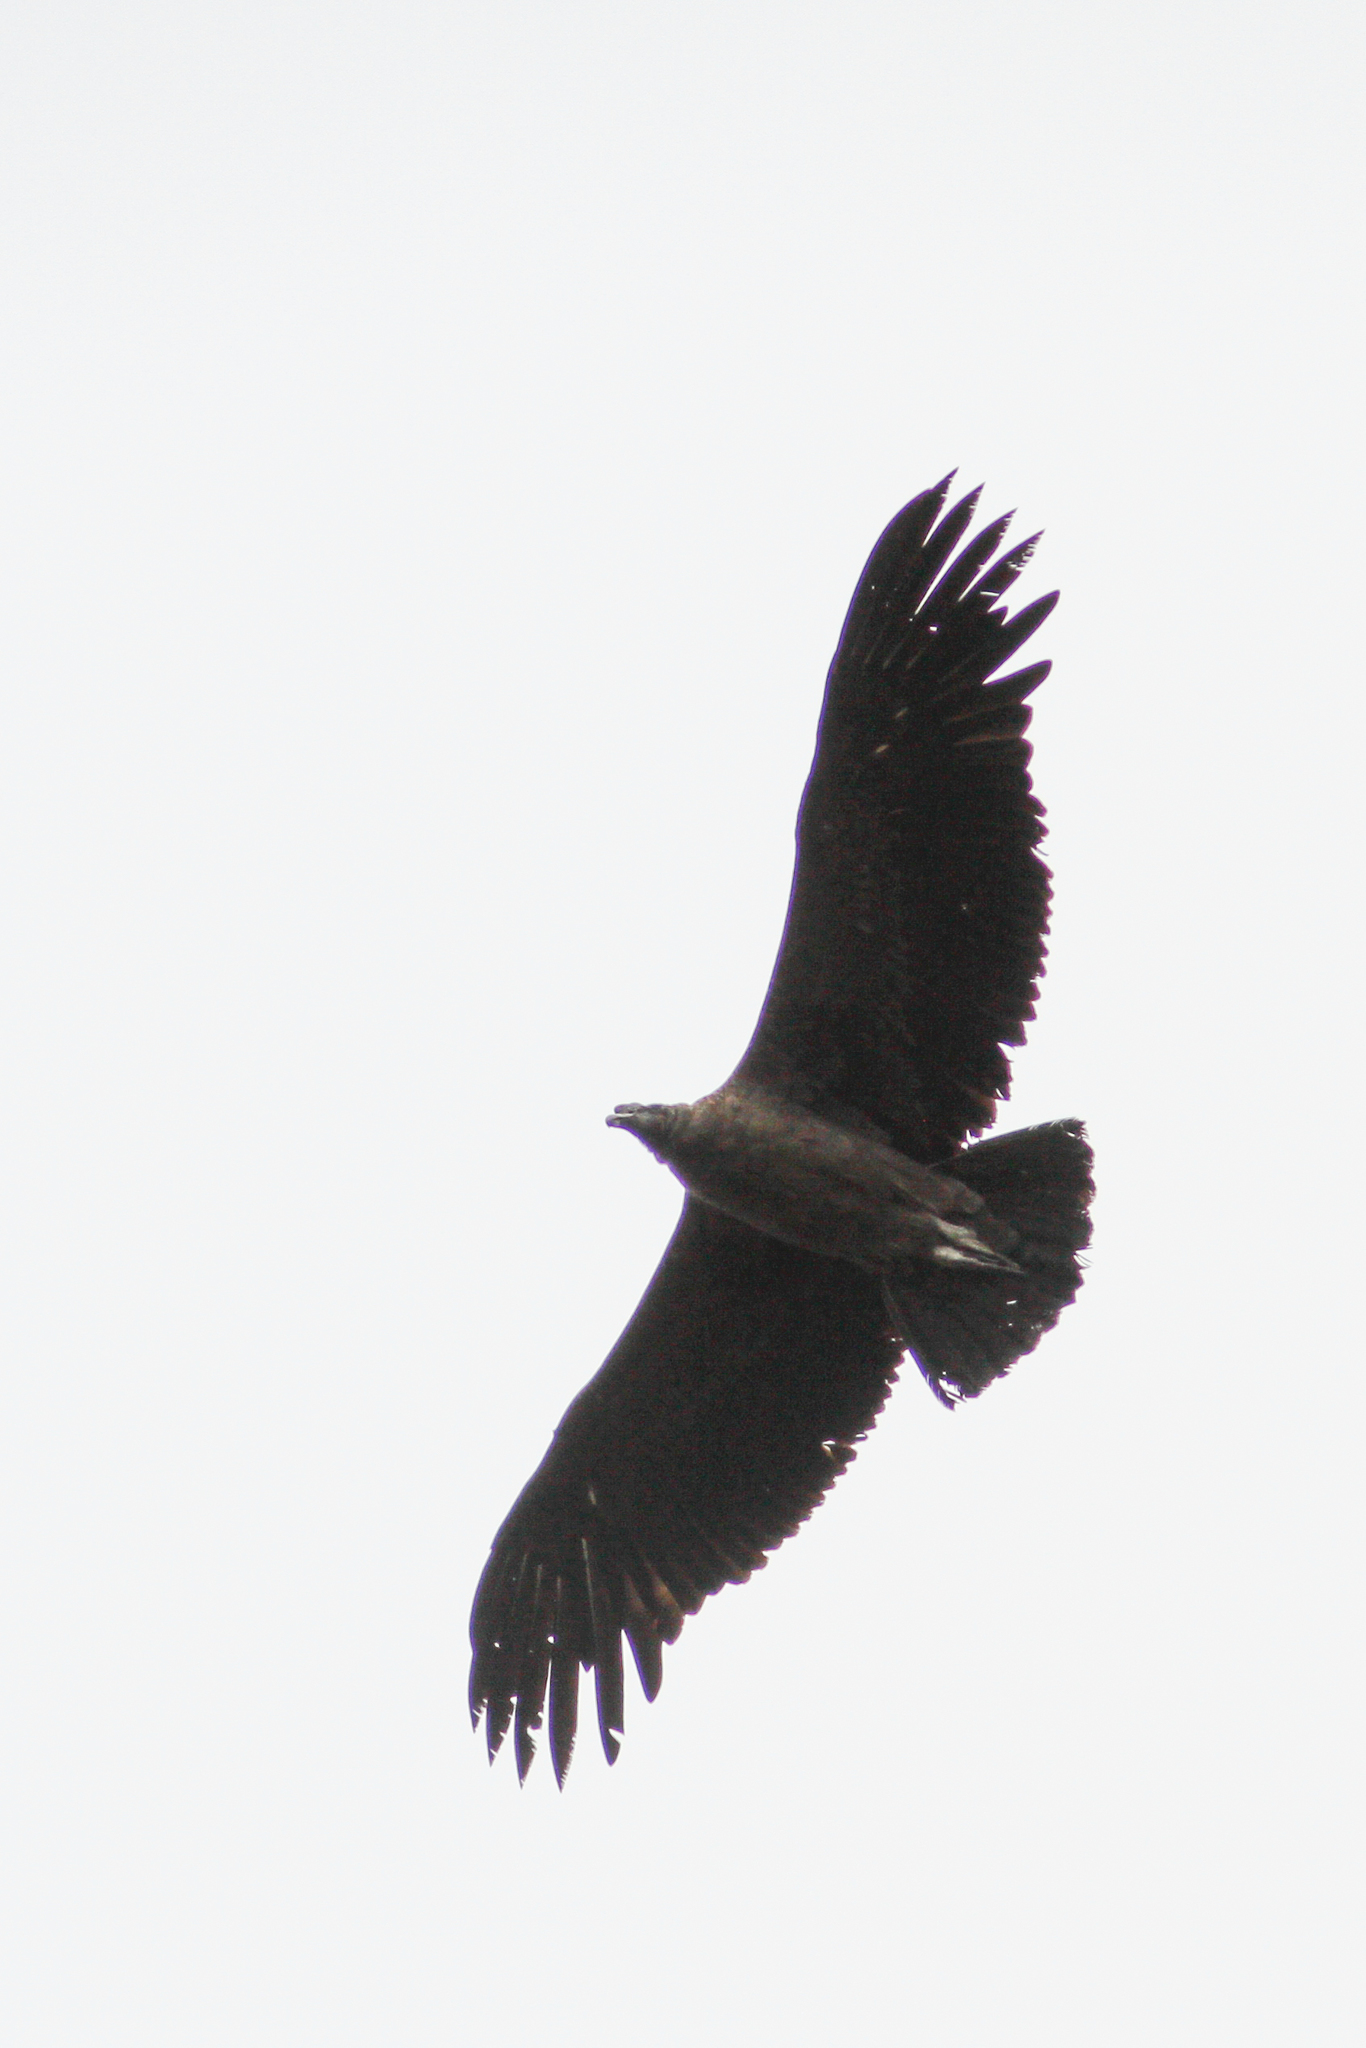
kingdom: Animalia
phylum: Chordata
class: Aves
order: Accipitriformes
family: Cathartidae
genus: Vultur
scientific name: Vultur gryphus
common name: Andean condor
